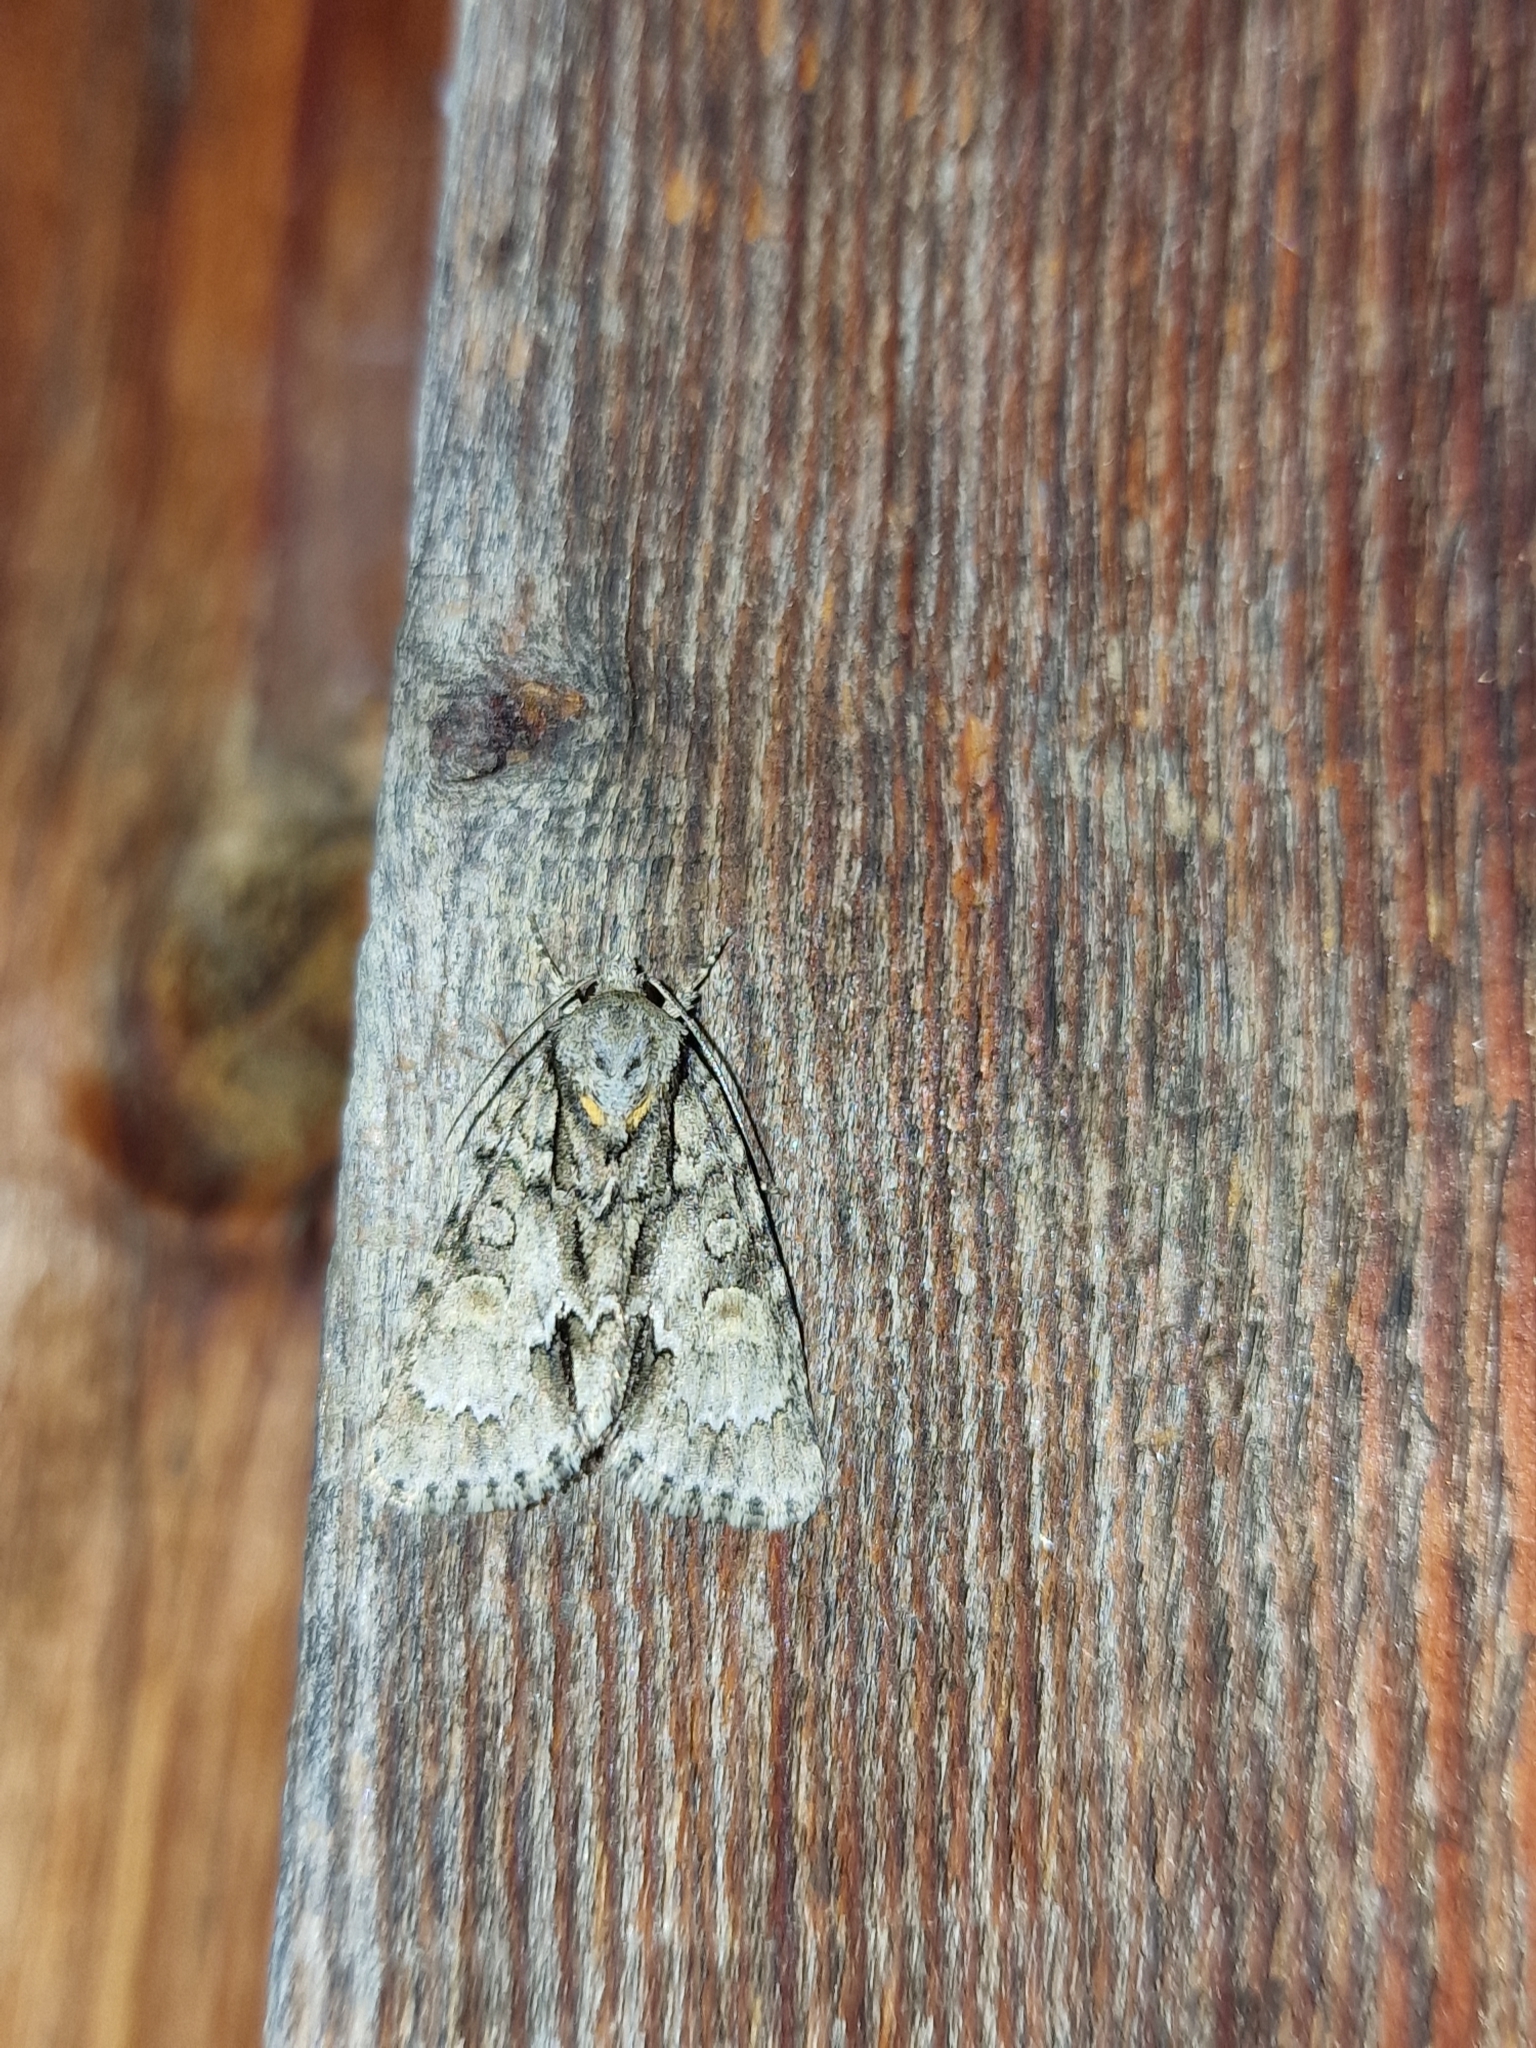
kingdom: Animalia
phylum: Arthropoda
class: Insecta
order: Lepidoptera
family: Noctuidae
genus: Acronicta
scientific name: Acronicta strigosa
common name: Marsh dagger
